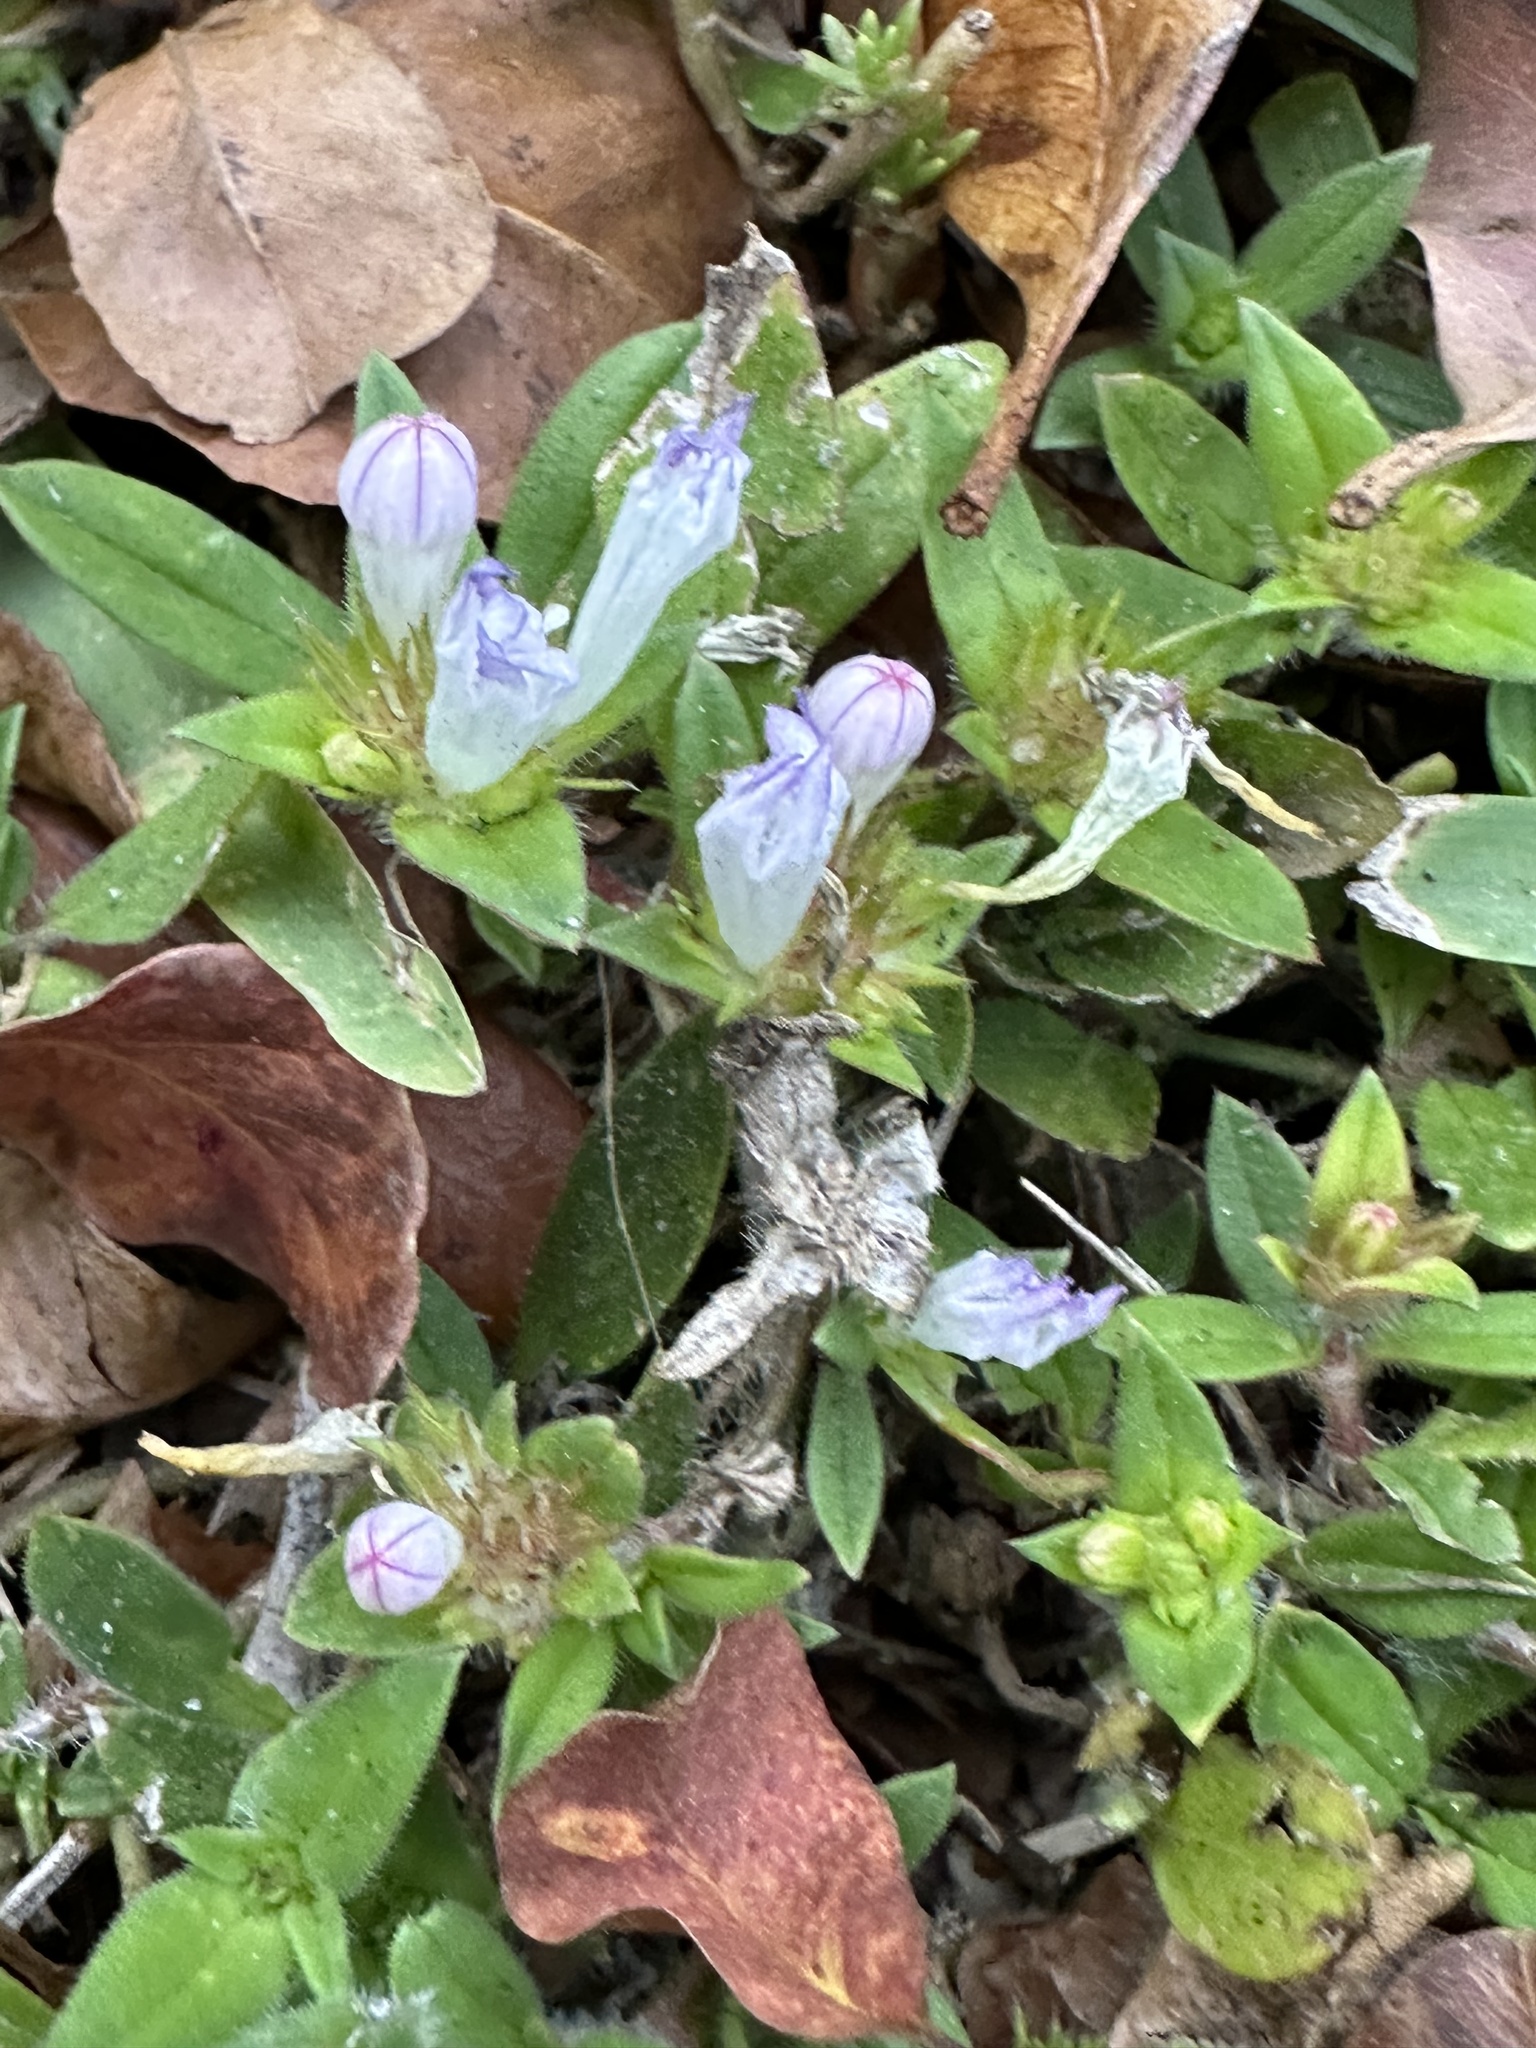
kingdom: Plantae
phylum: Tracheophyta
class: Magnoliopsida
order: Gentianales
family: Rubiaceae
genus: Richardia
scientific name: Richardia grandiflora
